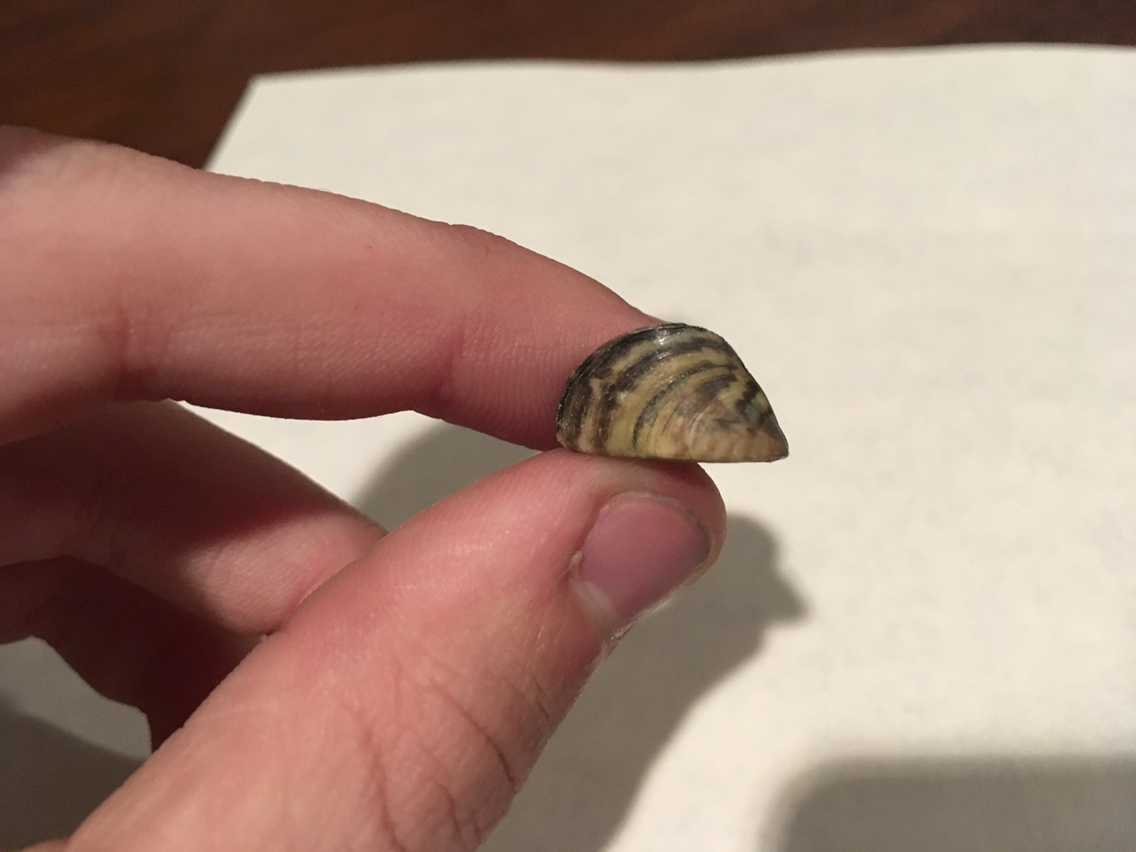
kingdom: Animalia
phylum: Mollusca
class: Bivalvia
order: Myida
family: Dreissenidae
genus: Dreissena
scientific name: Dreissena polymorpha
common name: Zebra mussel
